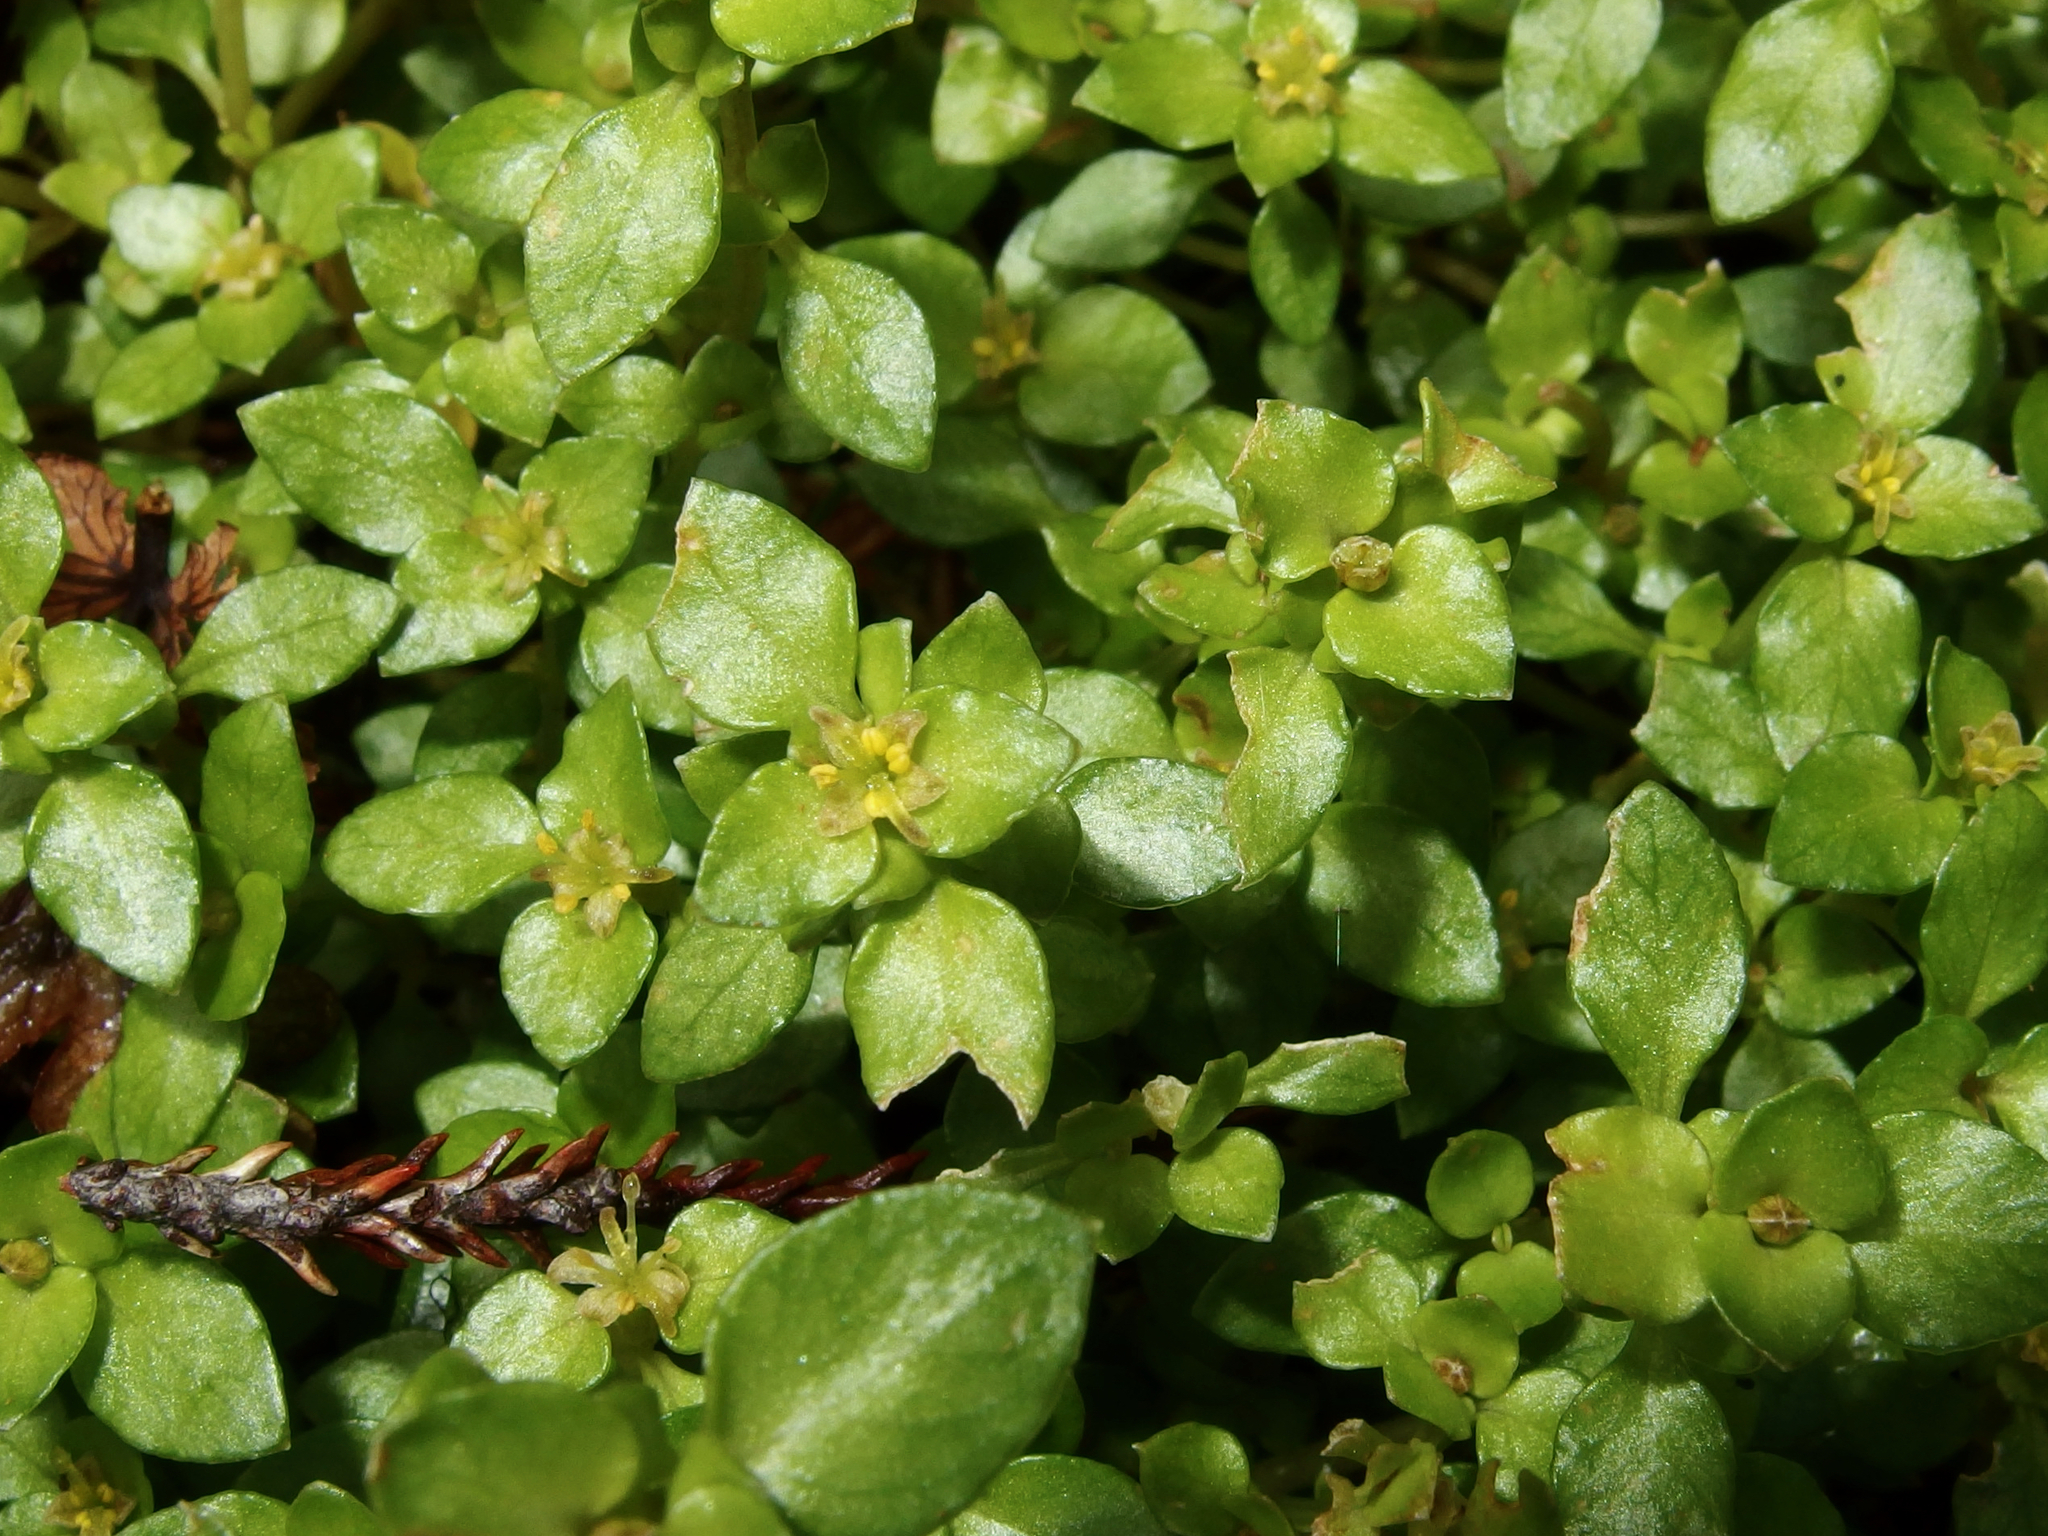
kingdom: Plantae
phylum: Tracheophyta
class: Magnoliopsida
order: Gentianales
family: Rubiaceae
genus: Nertera
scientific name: Nertera granadensis
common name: Beadplant
